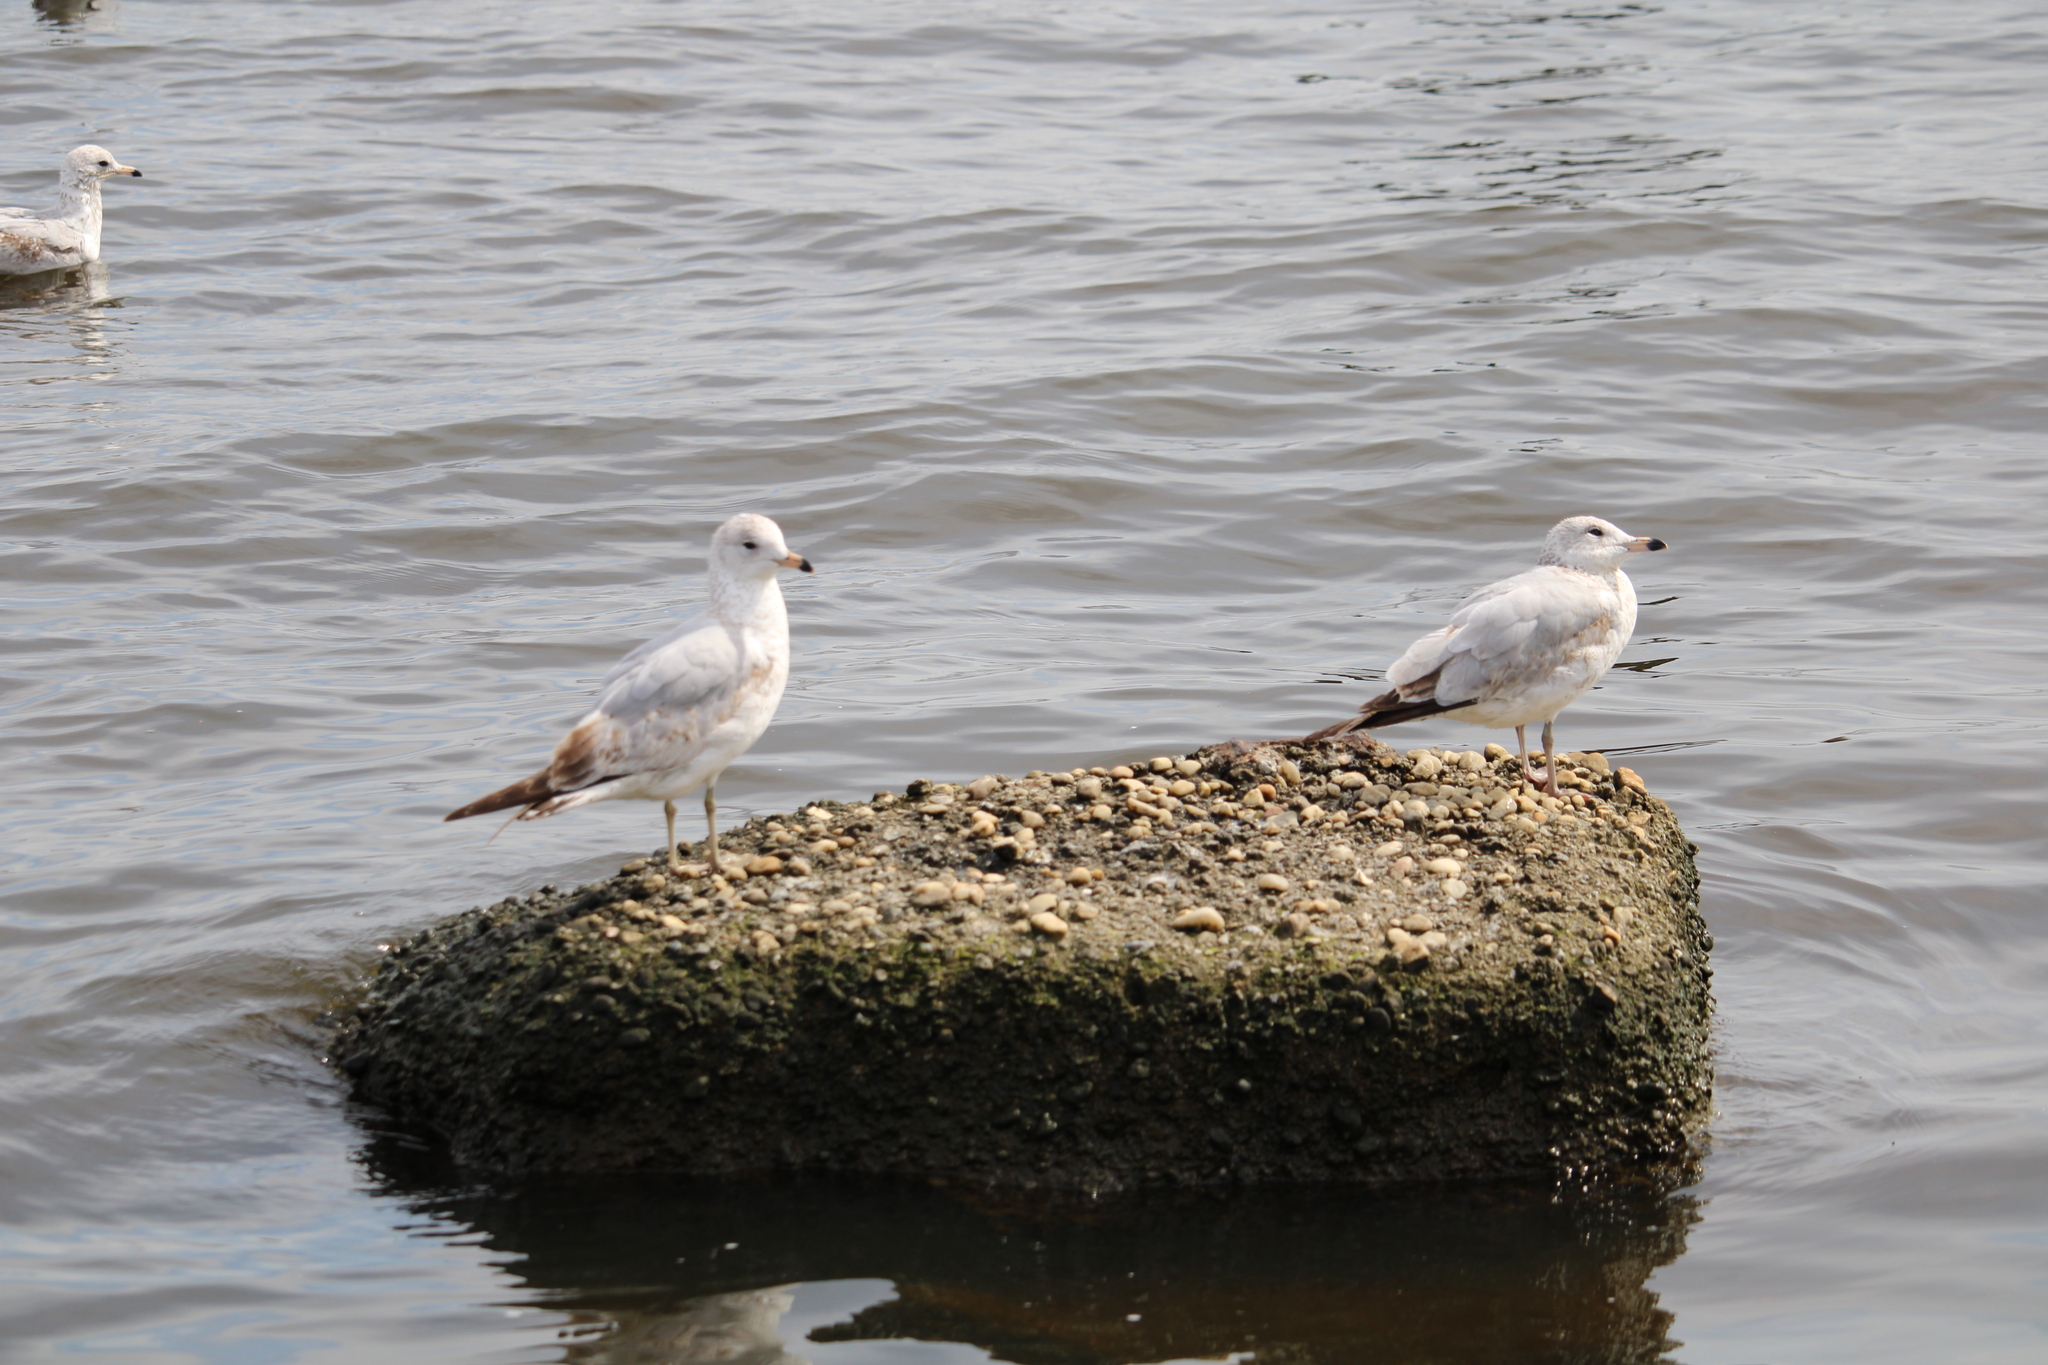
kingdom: Animalia
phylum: Chordata
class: Aves
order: Charadriiformes
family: Laridae
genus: Larus
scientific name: Larus delawarensis
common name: Ring-billed gull
